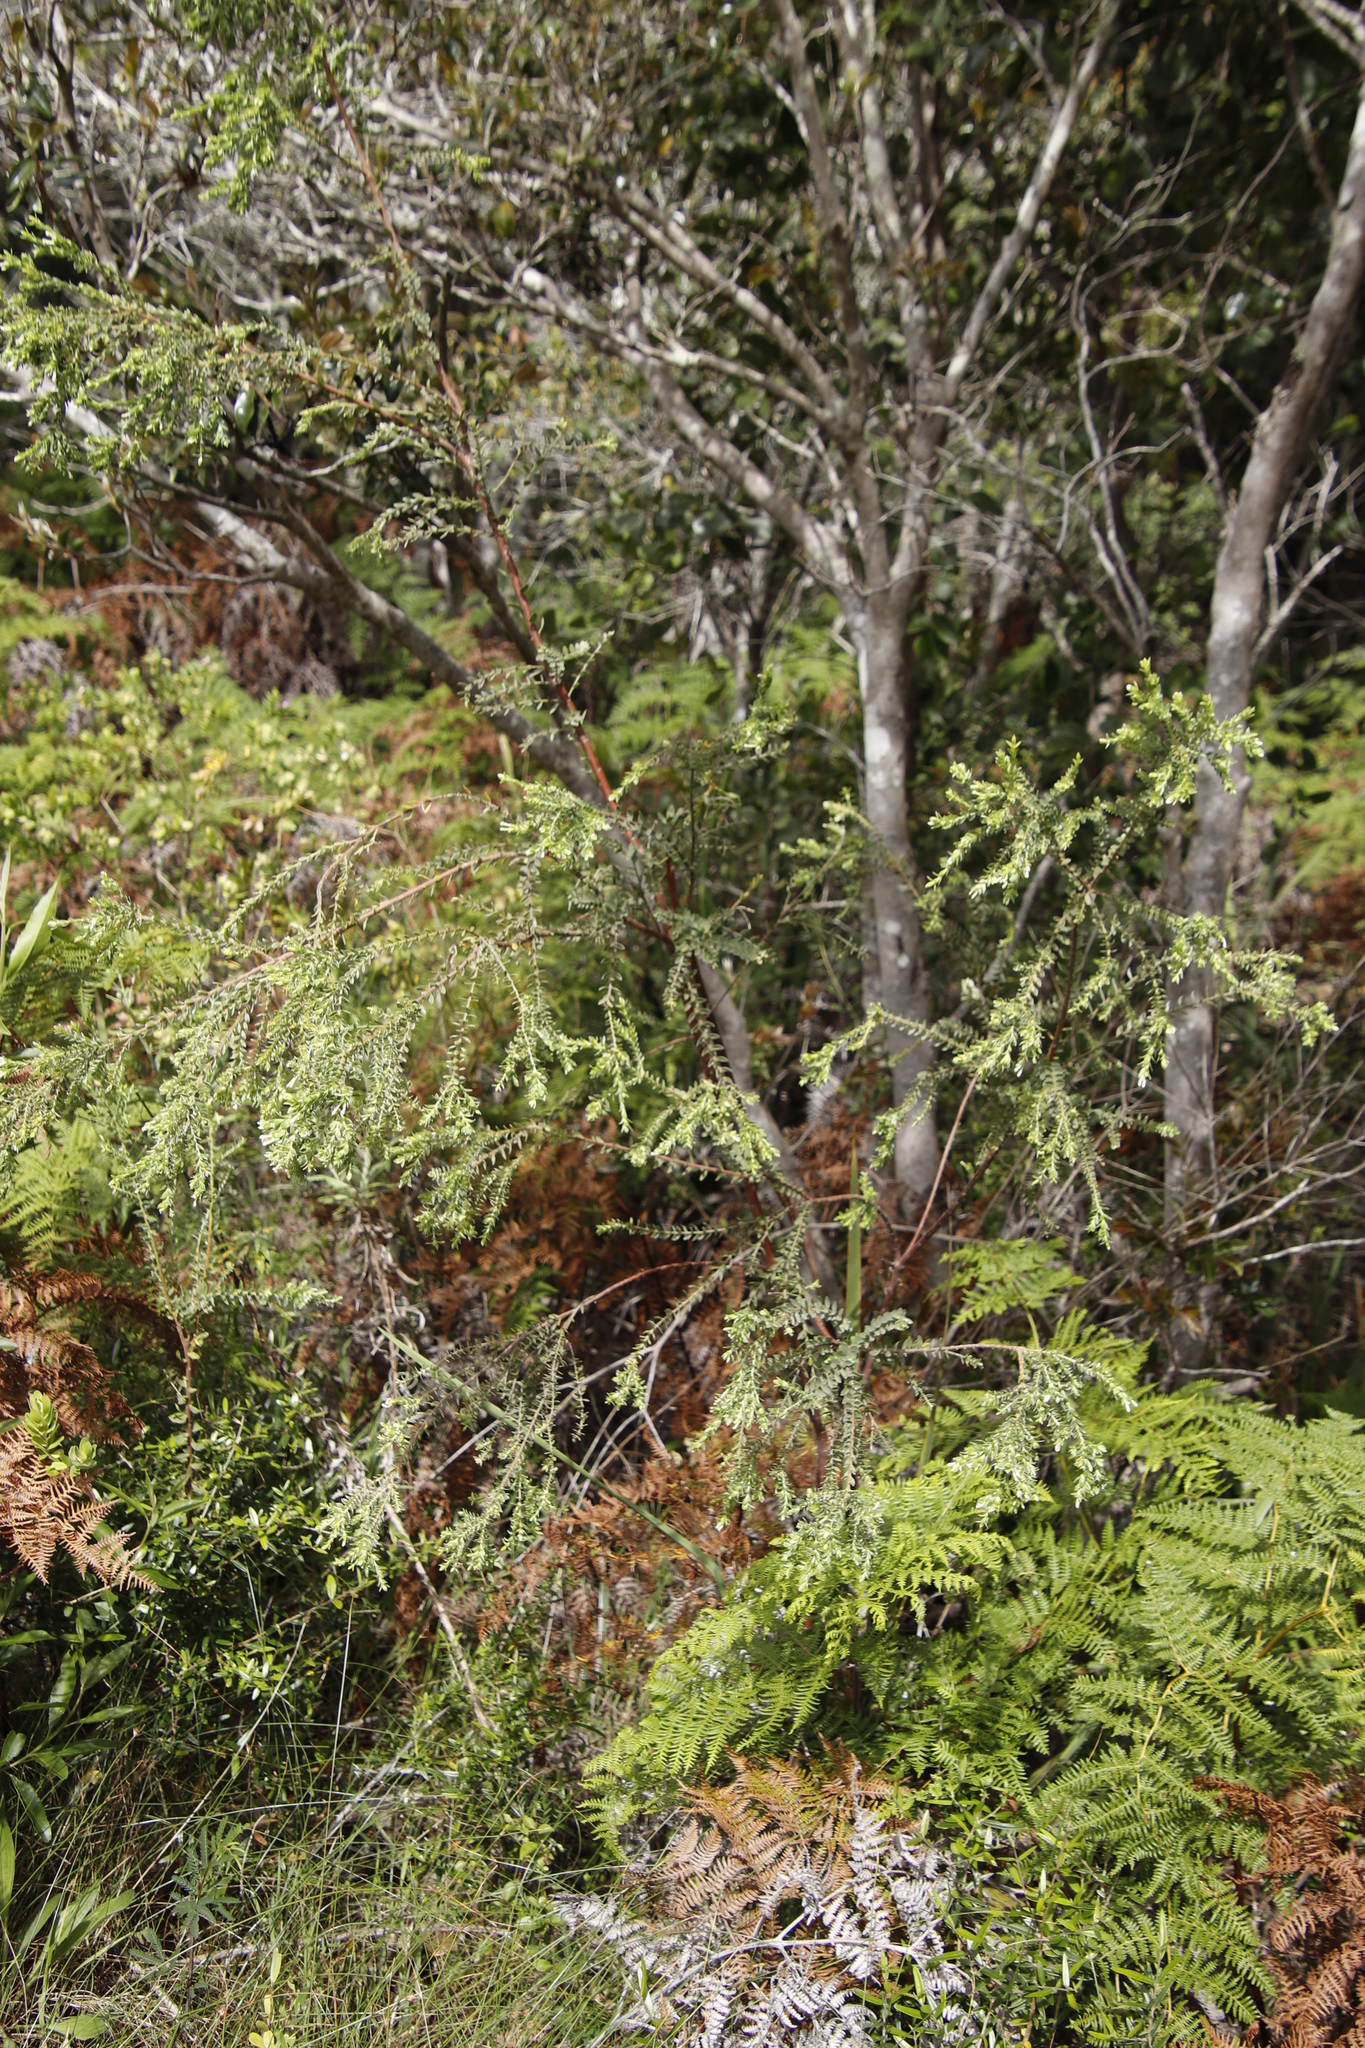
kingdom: Plantae
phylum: Tracheophyta
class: Magnoliopsida
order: Malvales
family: Thymelaeaceae
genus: Gnidia
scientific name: Gnidia sericea
